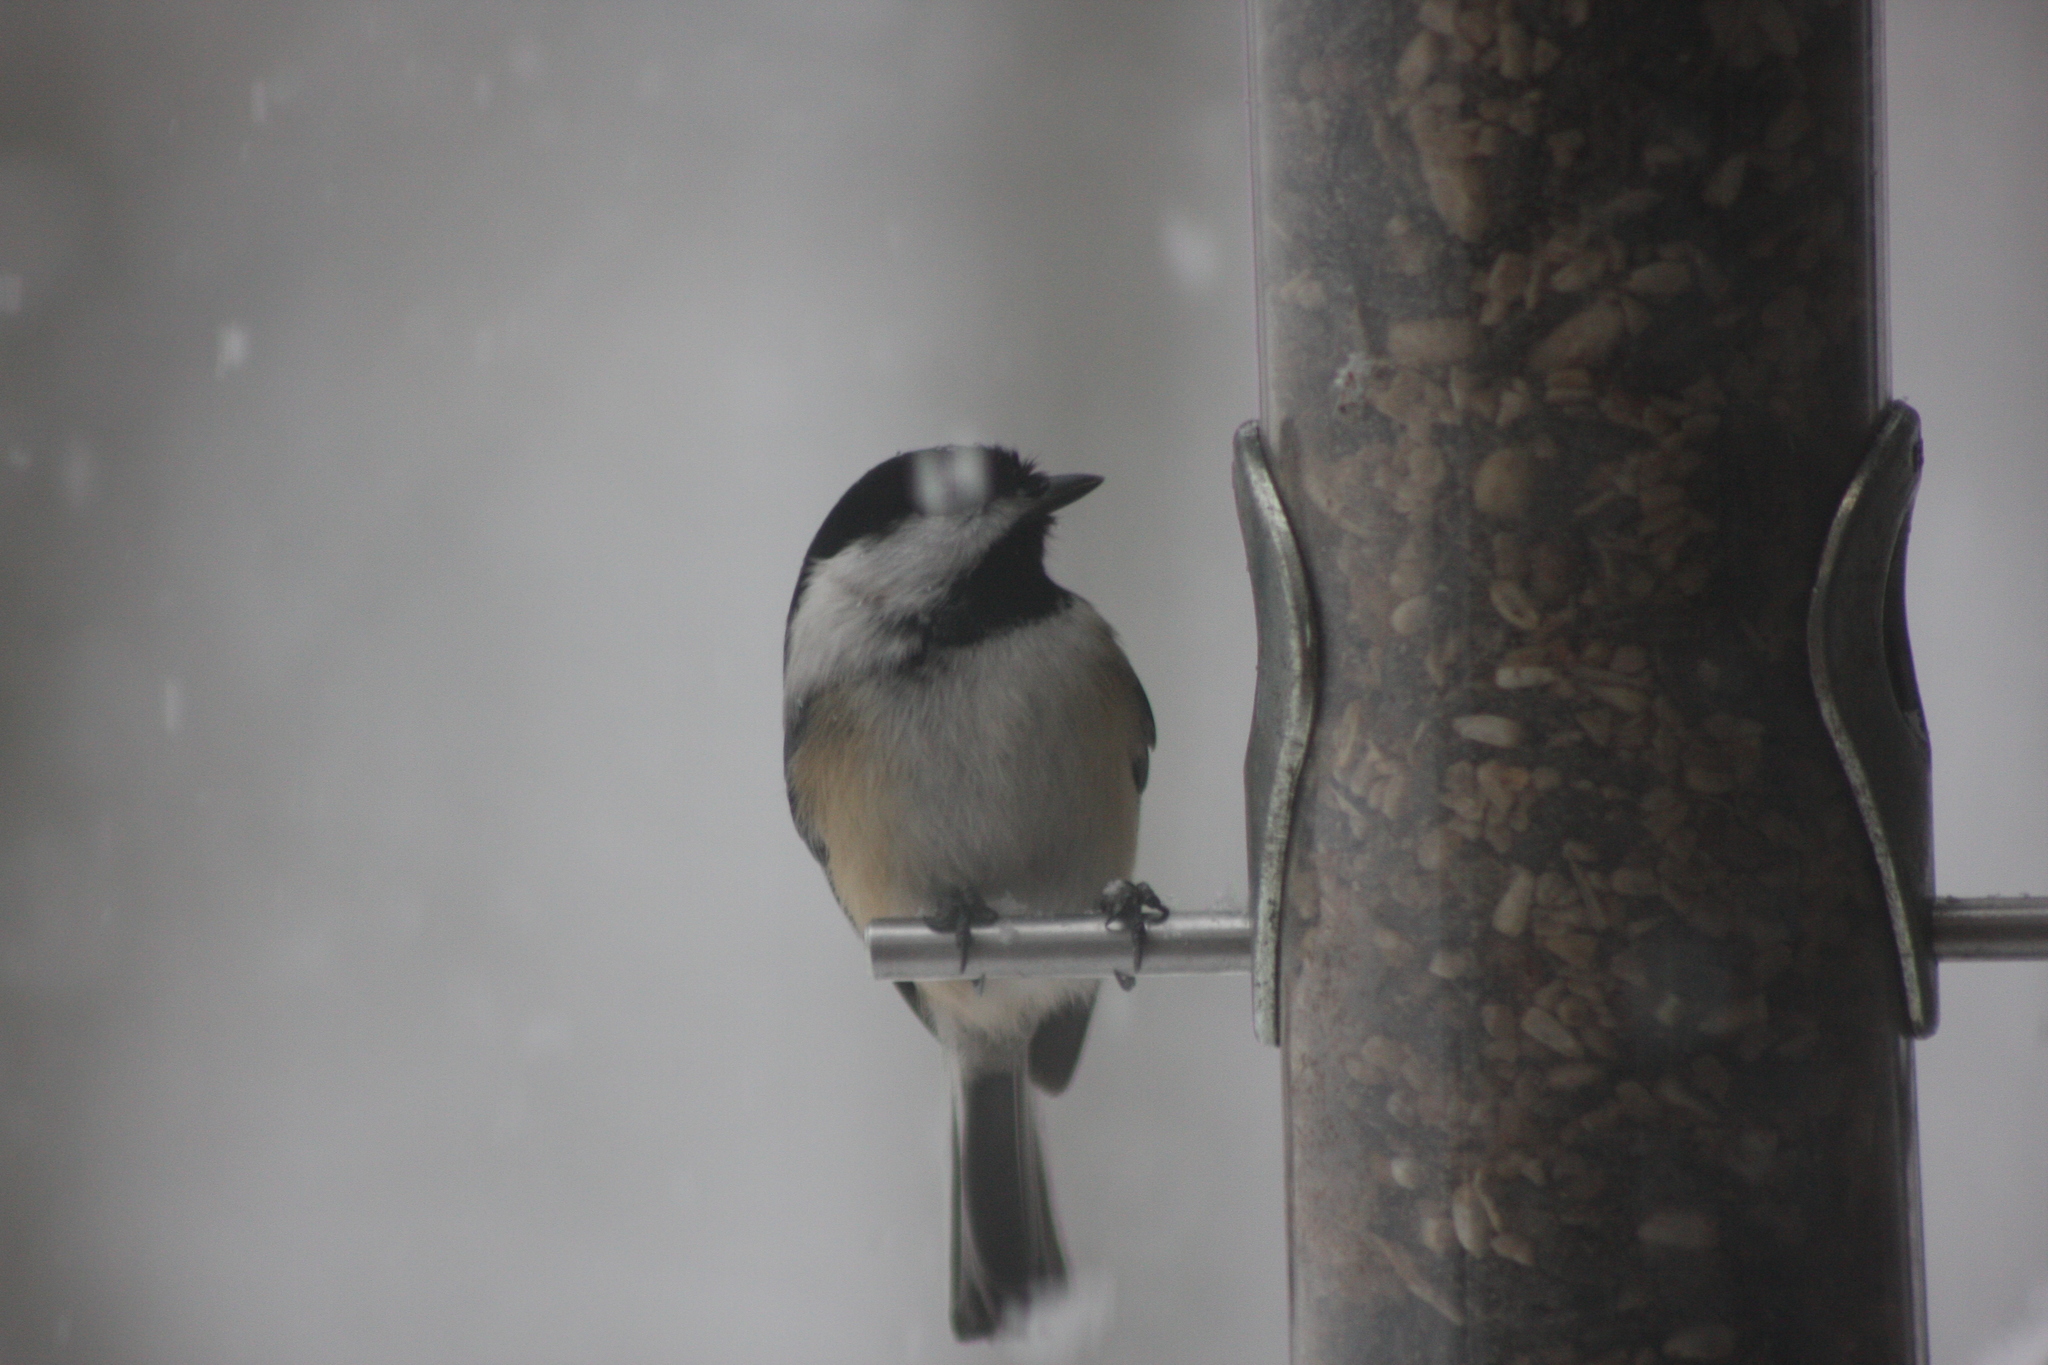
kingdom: Animalia
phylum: Chordata
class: Aves
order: Passeriformes
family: Paridae
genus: Poecile
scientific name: Poecile atricapillus
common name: Black-capped chickadee
